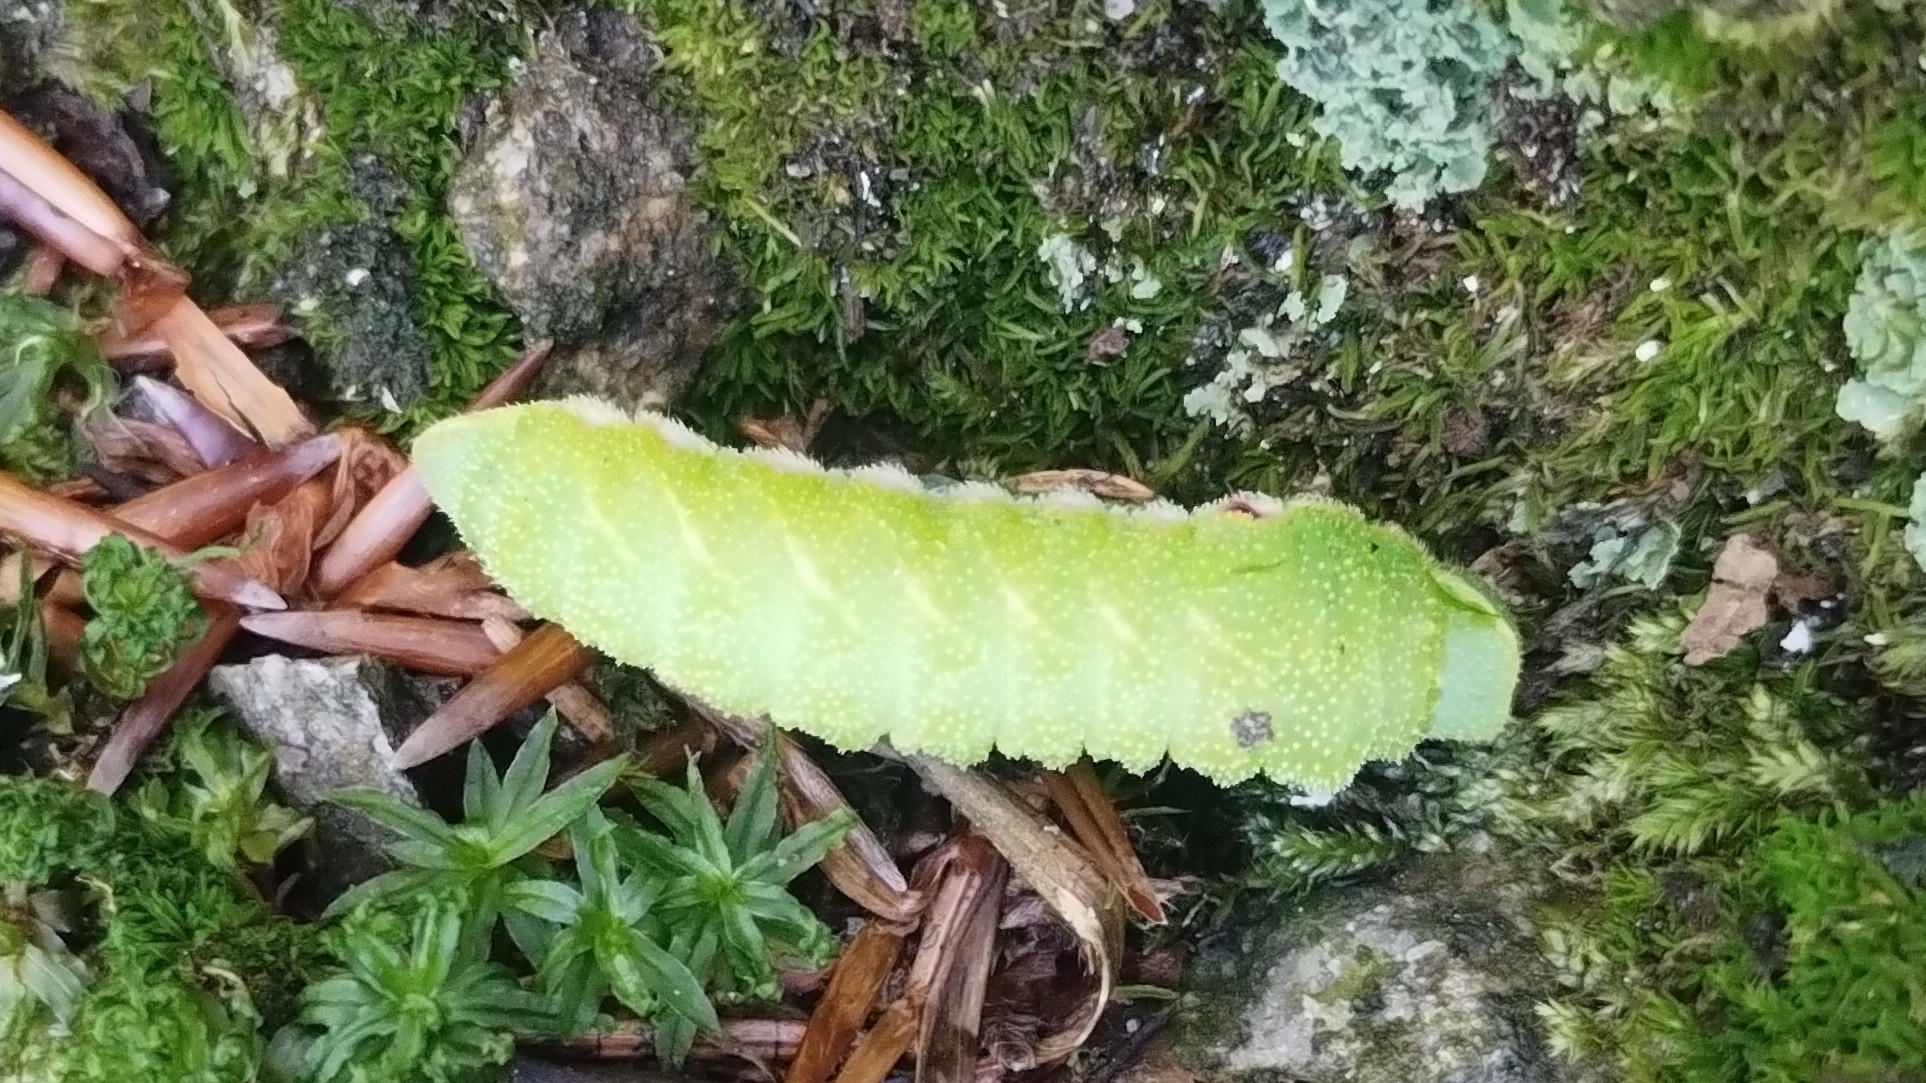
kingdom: Animalia
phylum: Arthropoda
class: Insecta
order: Lepidoptera
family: Saturniidae
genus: Aglia
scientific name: Aglia tau
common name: Tau emperor
